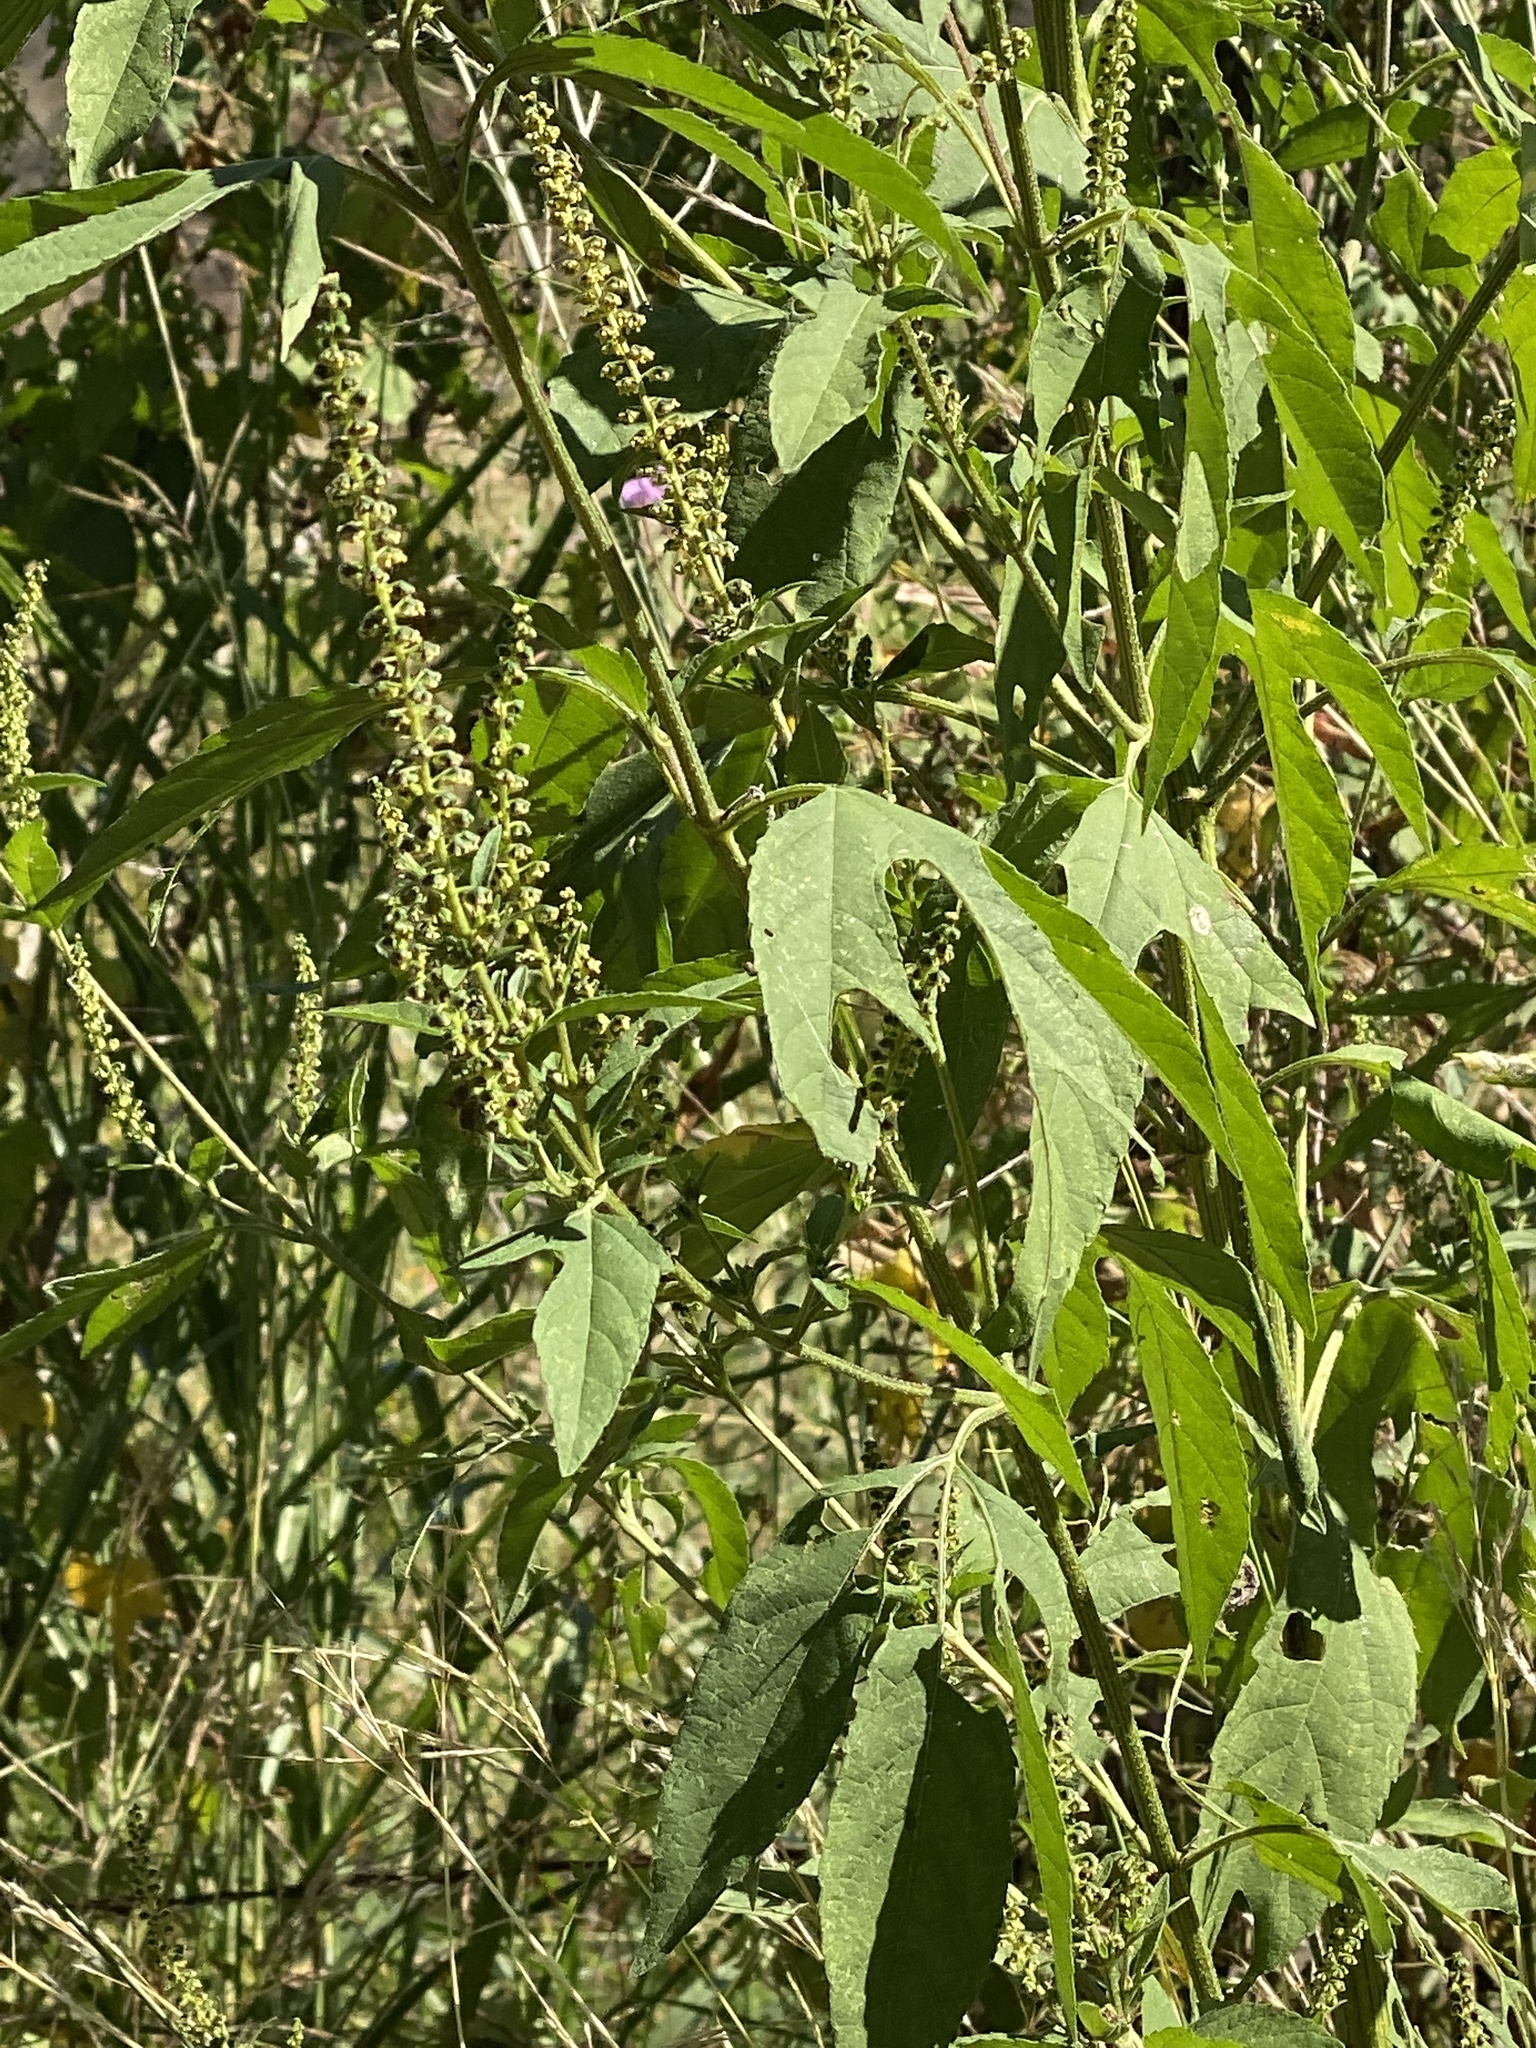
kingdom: Plantae
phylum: Tracheophyta
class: Magnoliopsida
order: Asterales
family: Asteraceae
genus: Ambrosia
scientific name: Ambrosia trifida
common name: Giant ragweed
